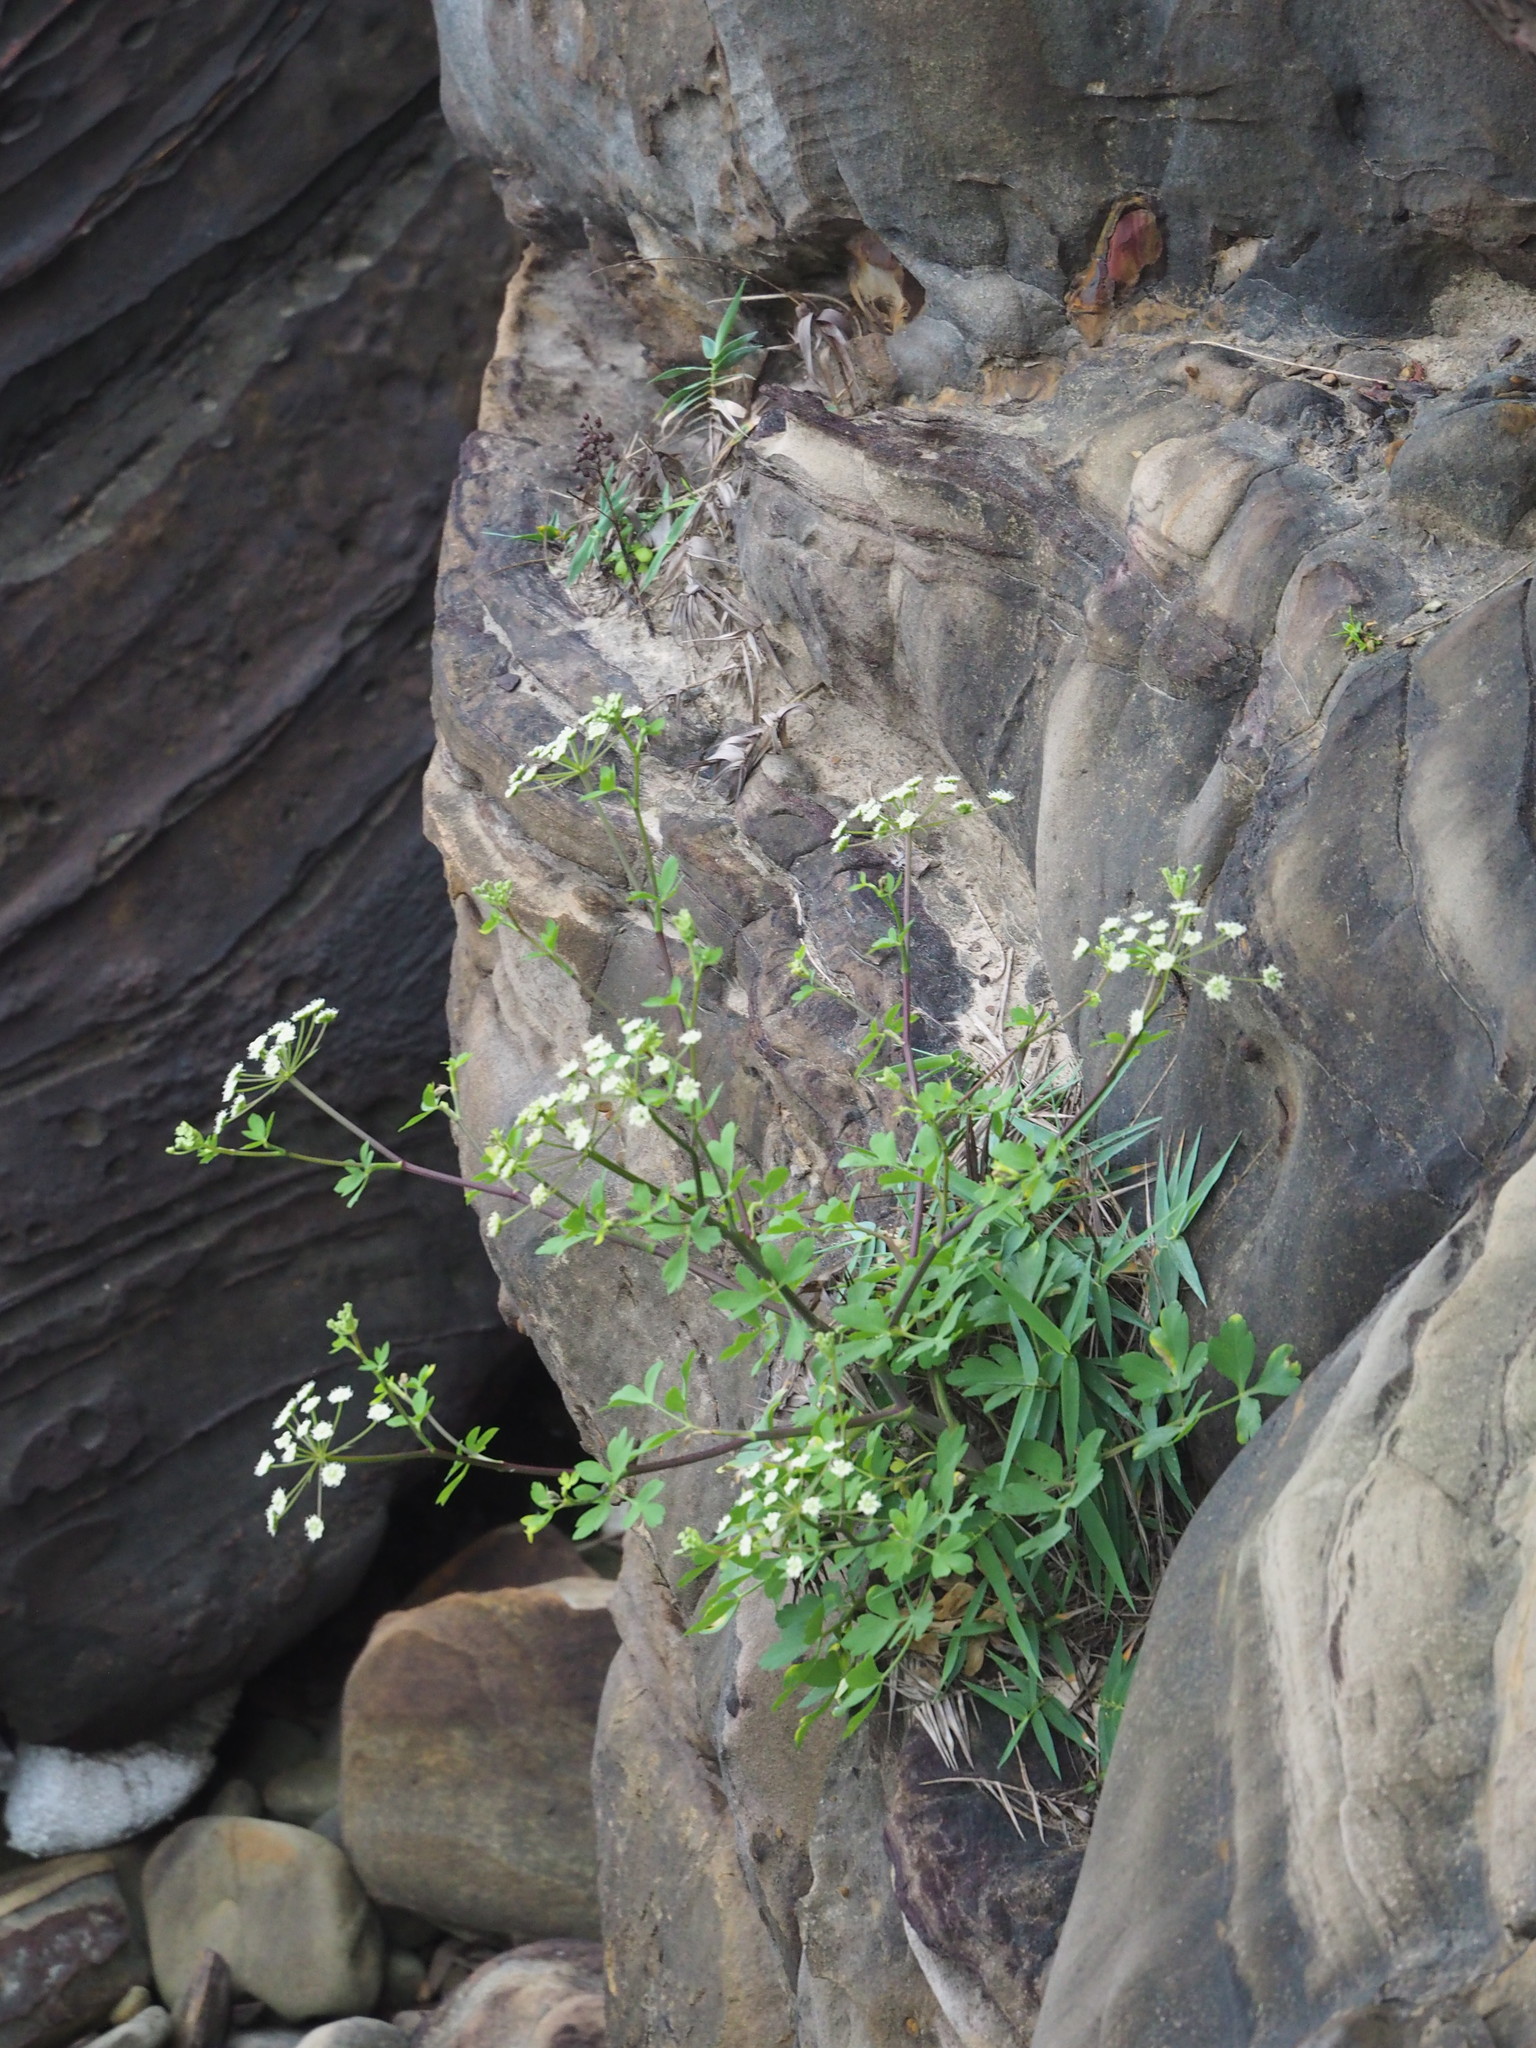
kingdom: Plantae
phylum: Tracheophyta
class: Magnoliopsida
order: Apiales
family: Apiaceae
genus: Peucedanum
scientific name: Peucedanum japonicum
